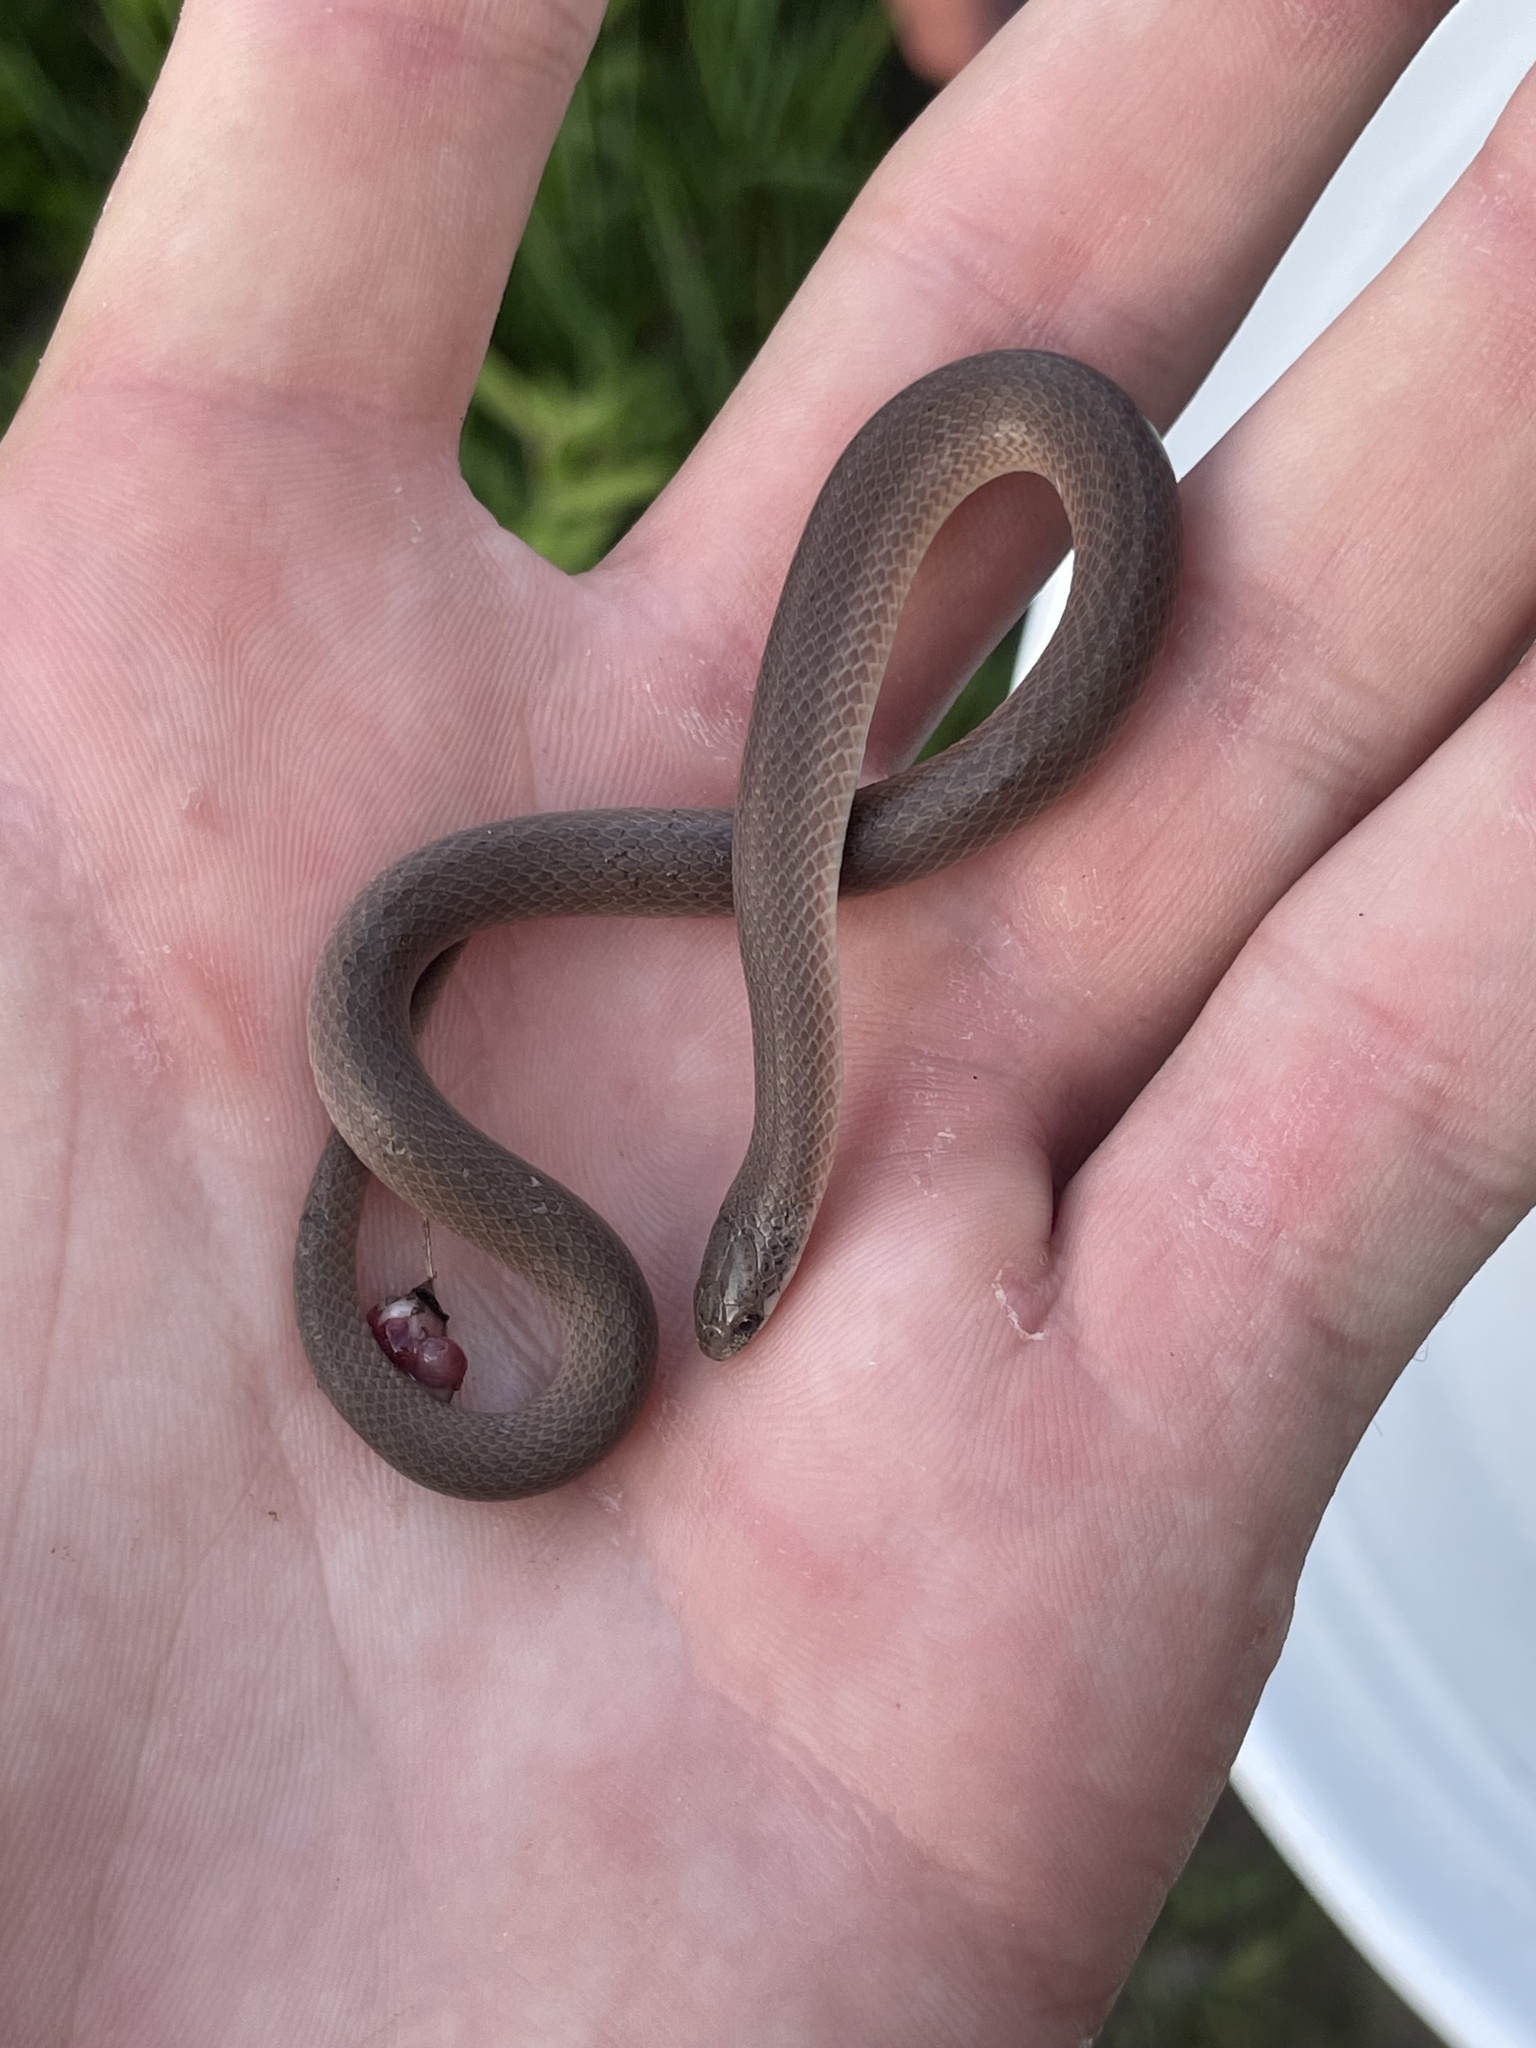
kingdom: Animalia
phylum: Chordata
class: Squamata
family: Colubridae
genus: Virginia
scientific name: Virginia valeriae
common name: Smooth earth snake
